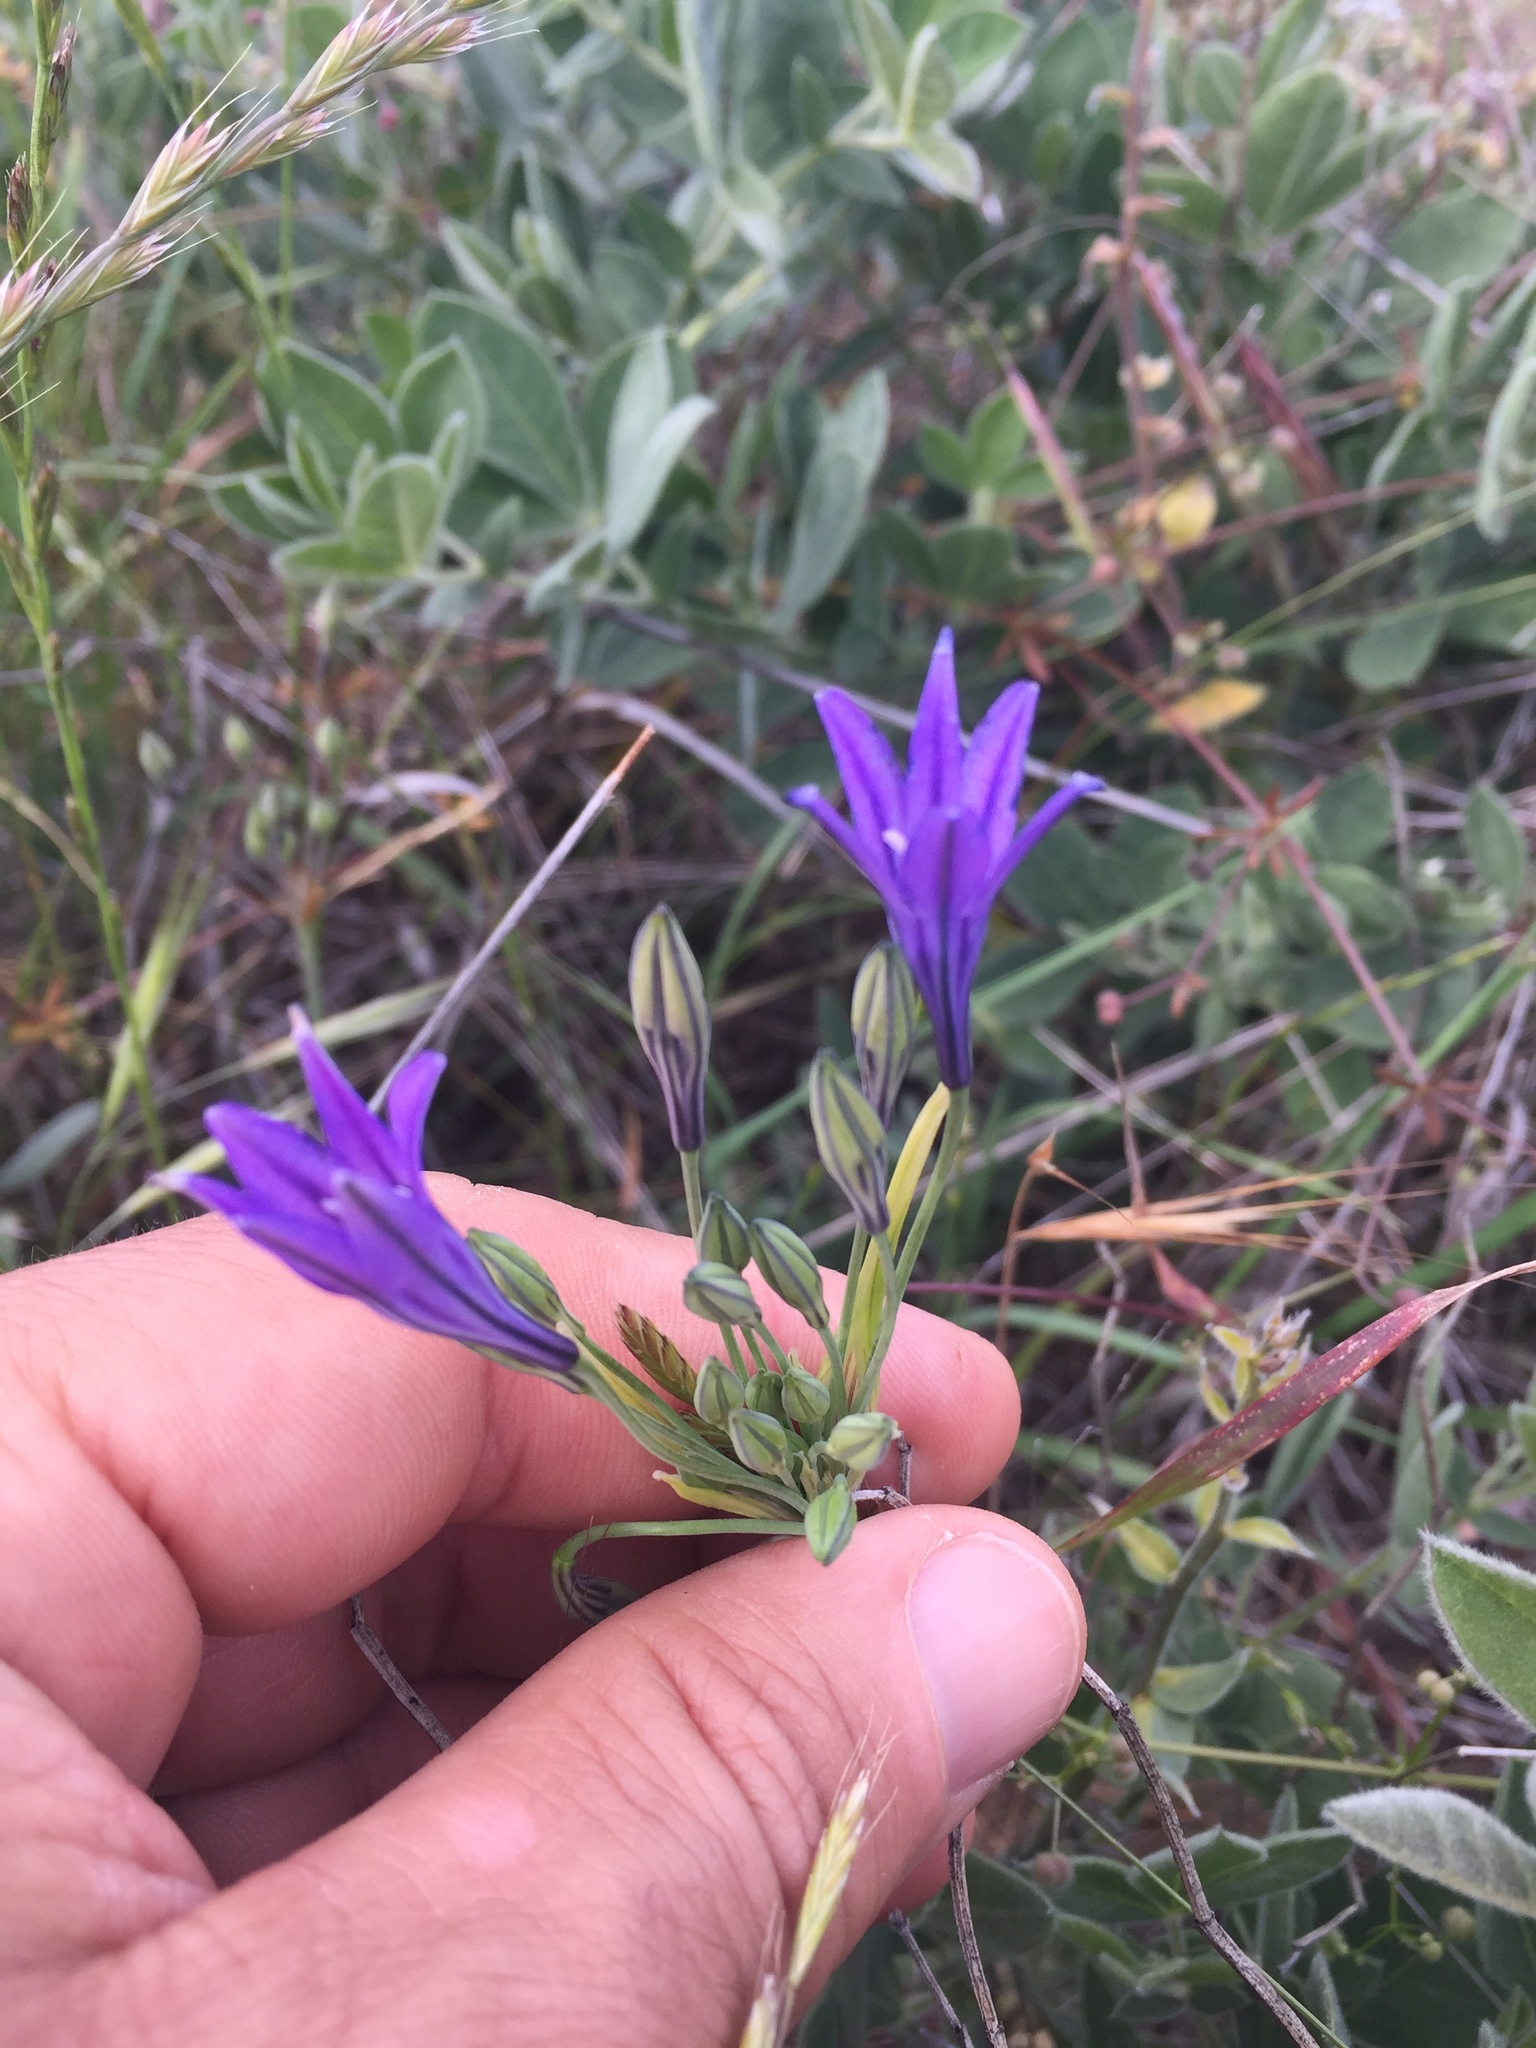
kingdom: Plantae
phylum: Tracheophyta
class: Liliopsida
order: Asparagales
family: Asparagaceae
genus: Triteleia
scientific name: Triteleia laxa
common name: Triplet-lily
